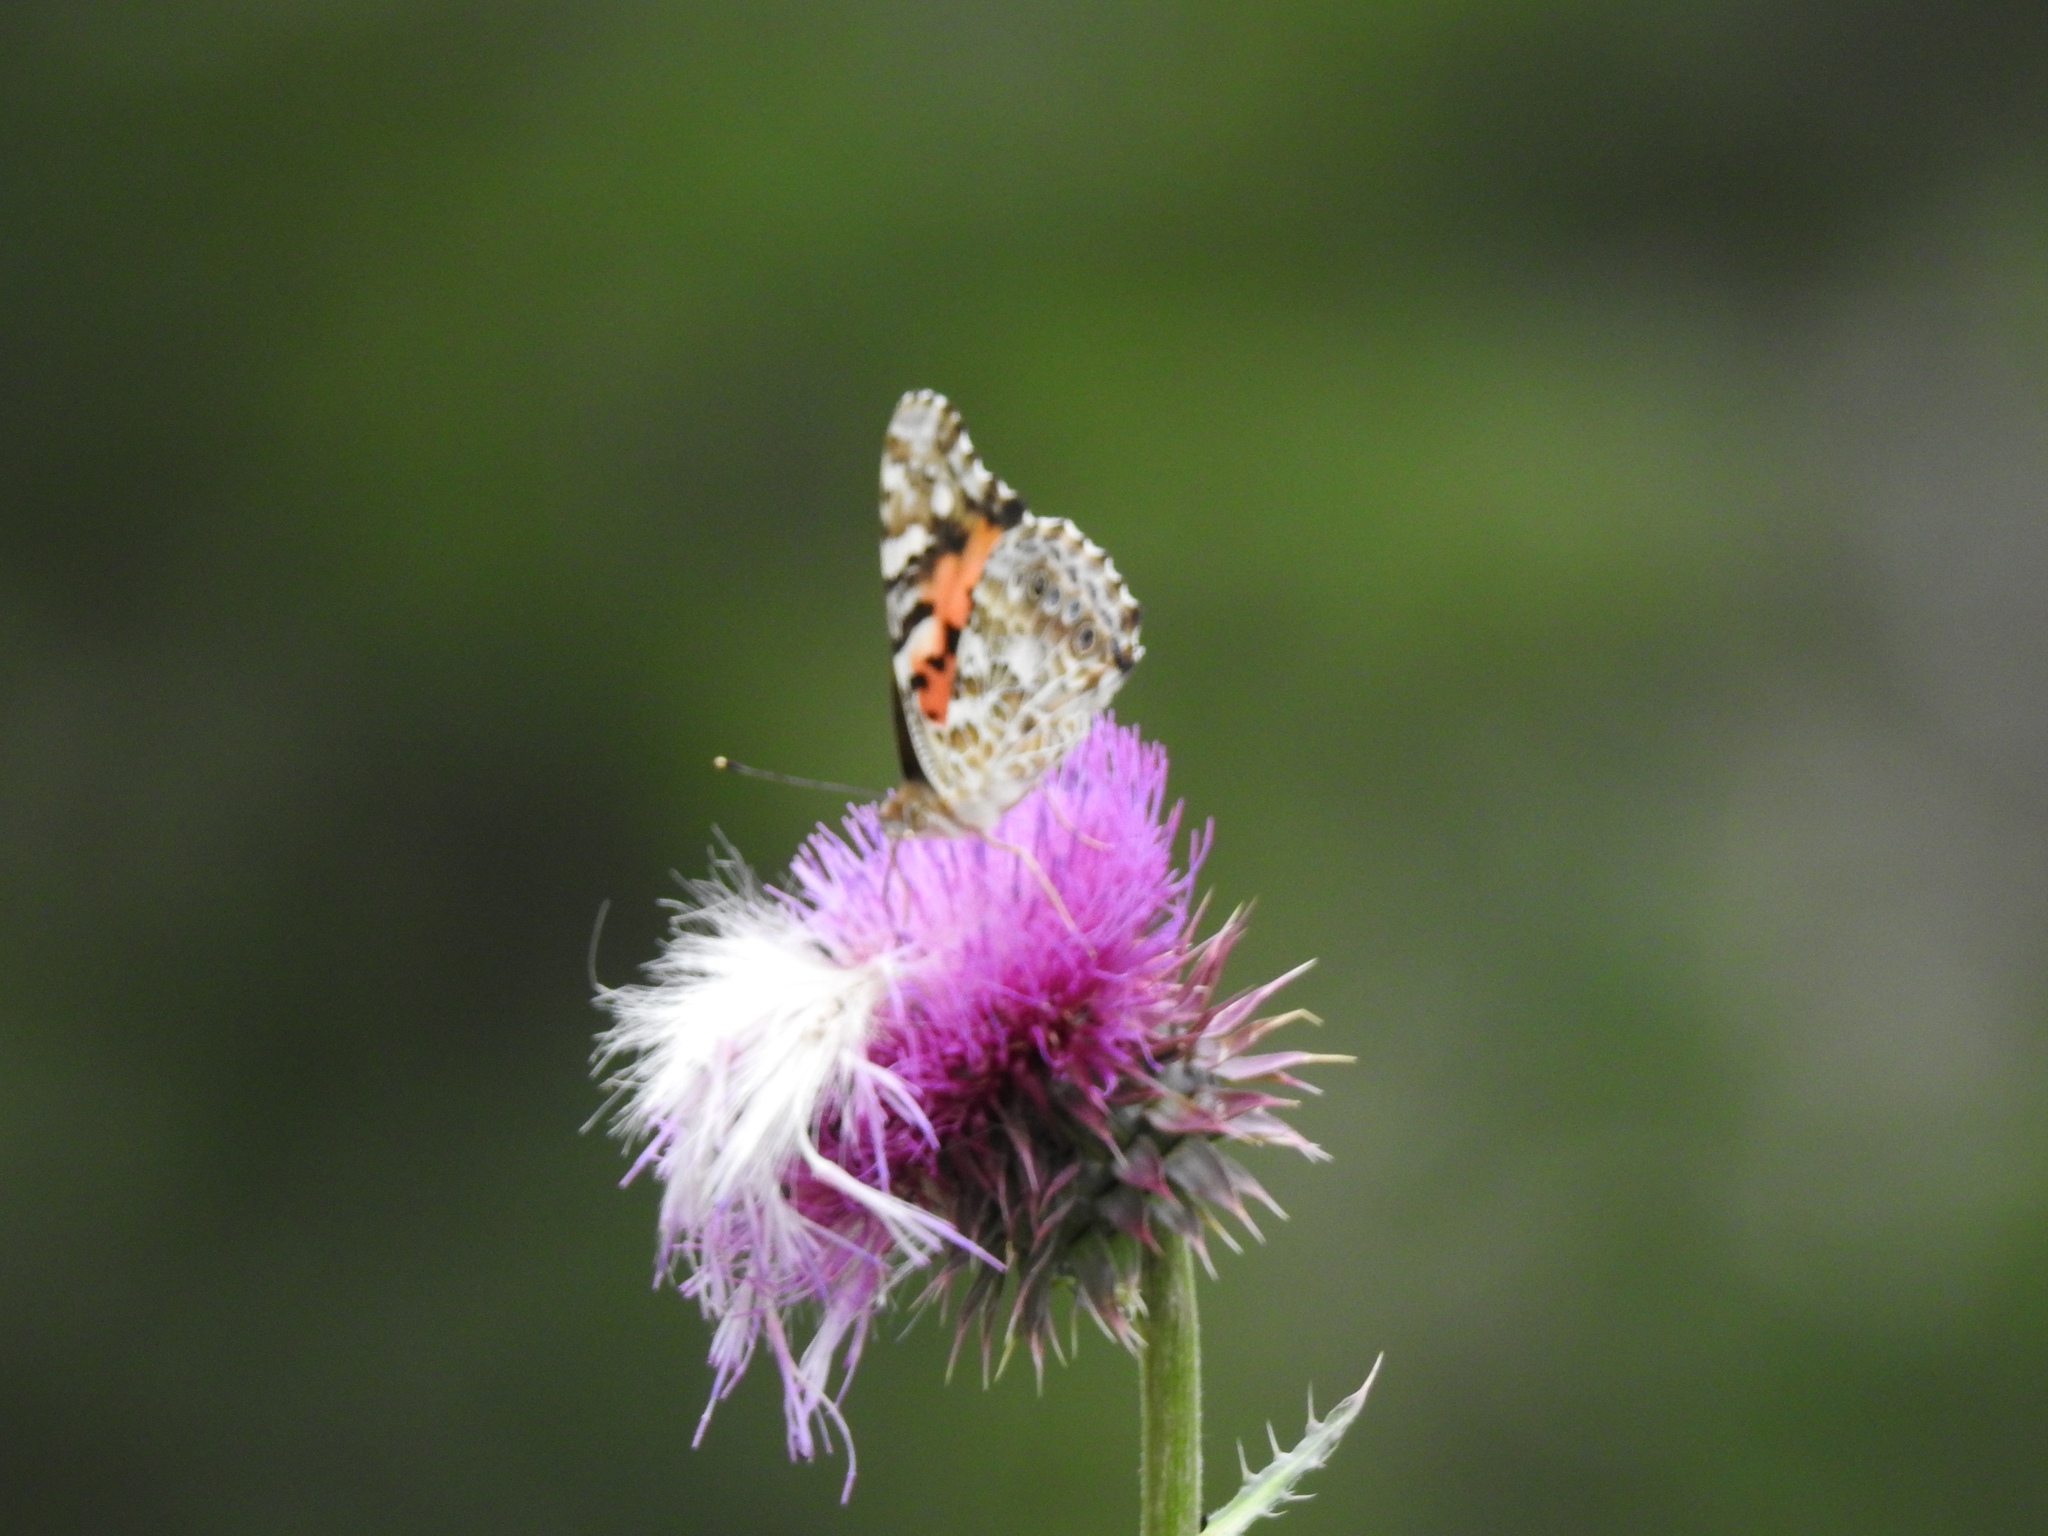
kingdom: Animalia
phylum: Arthropoda
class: Insecta
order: Lepidoptera
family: Nymphalidae
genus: Vanessa
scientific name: Vanessa cardui
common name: Painted lady
